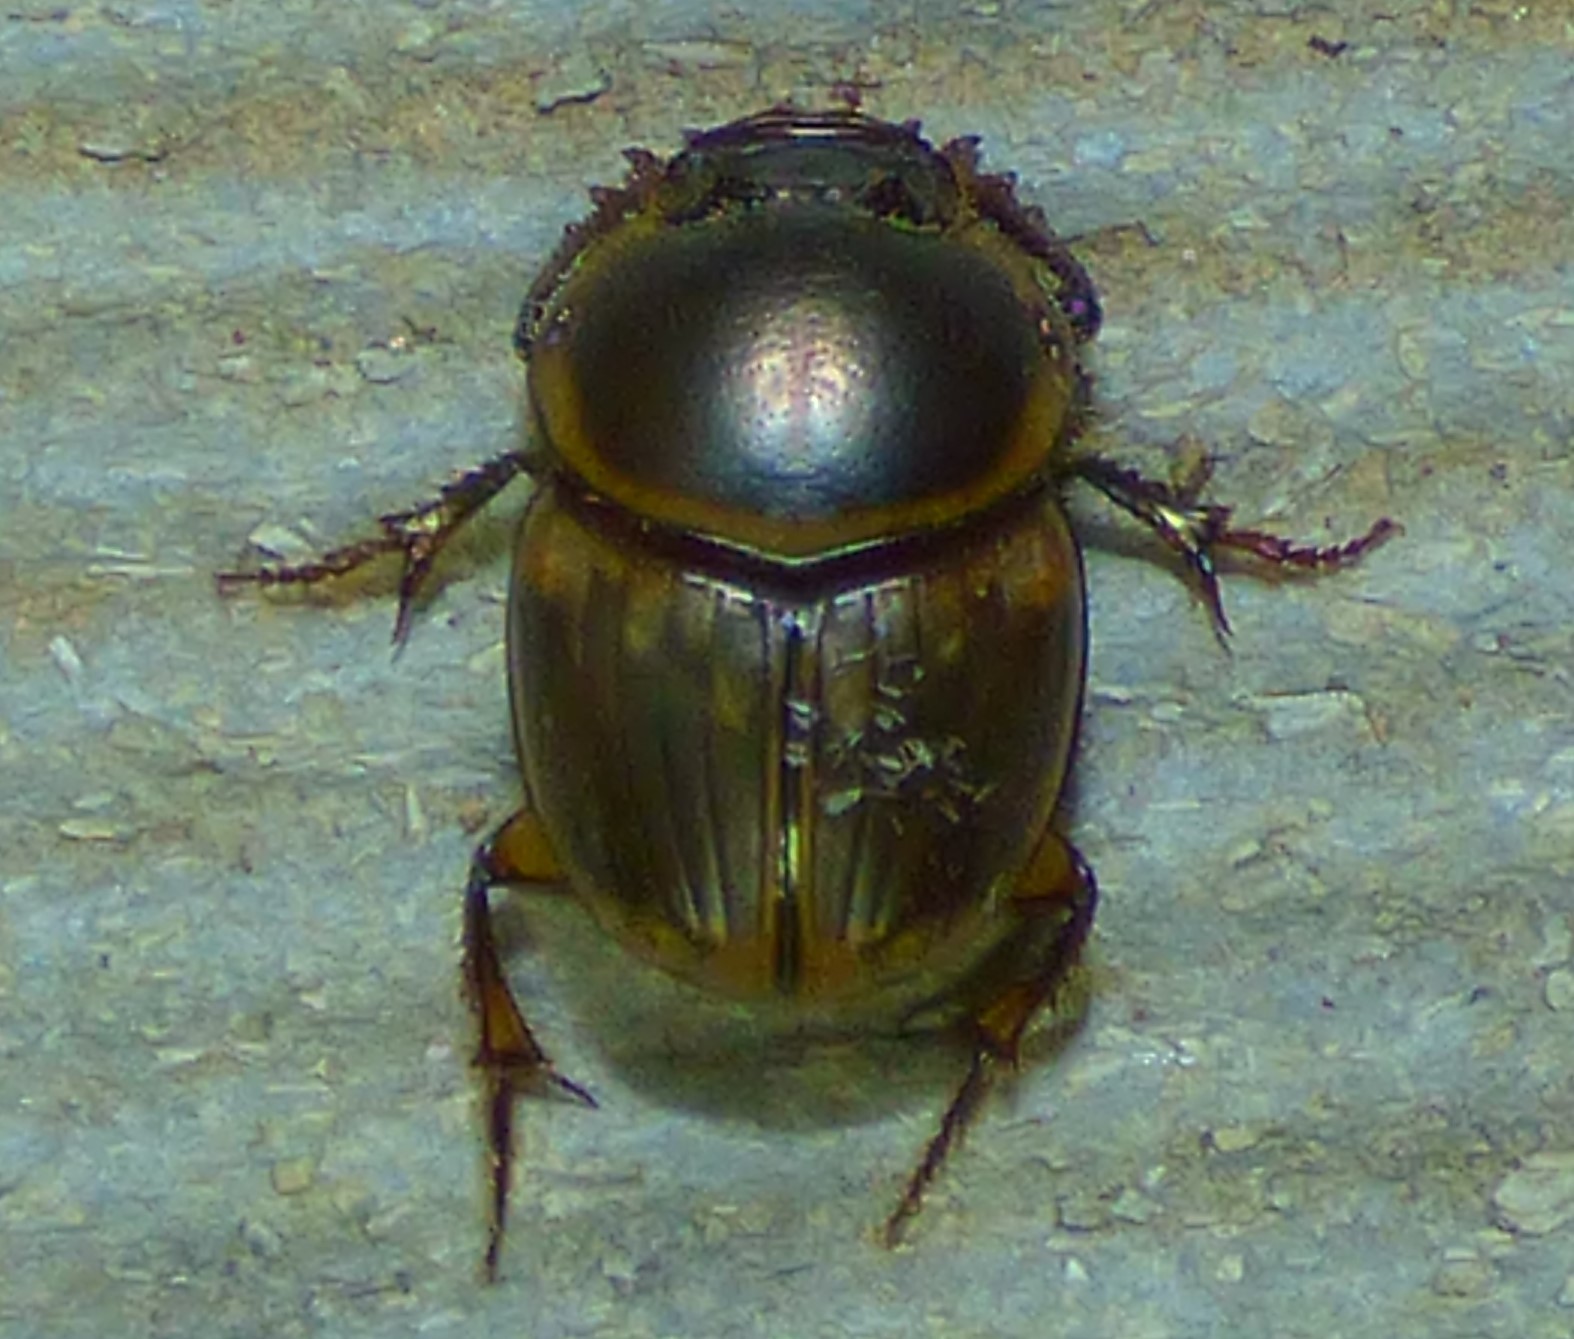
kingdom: Animalia
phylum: Arthropoda
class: Insecta
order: Coleoptera
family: Scarabaeidae
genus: Digitonthophagus
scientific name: Digitonthophagus gazella
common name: Brown dung beetle
